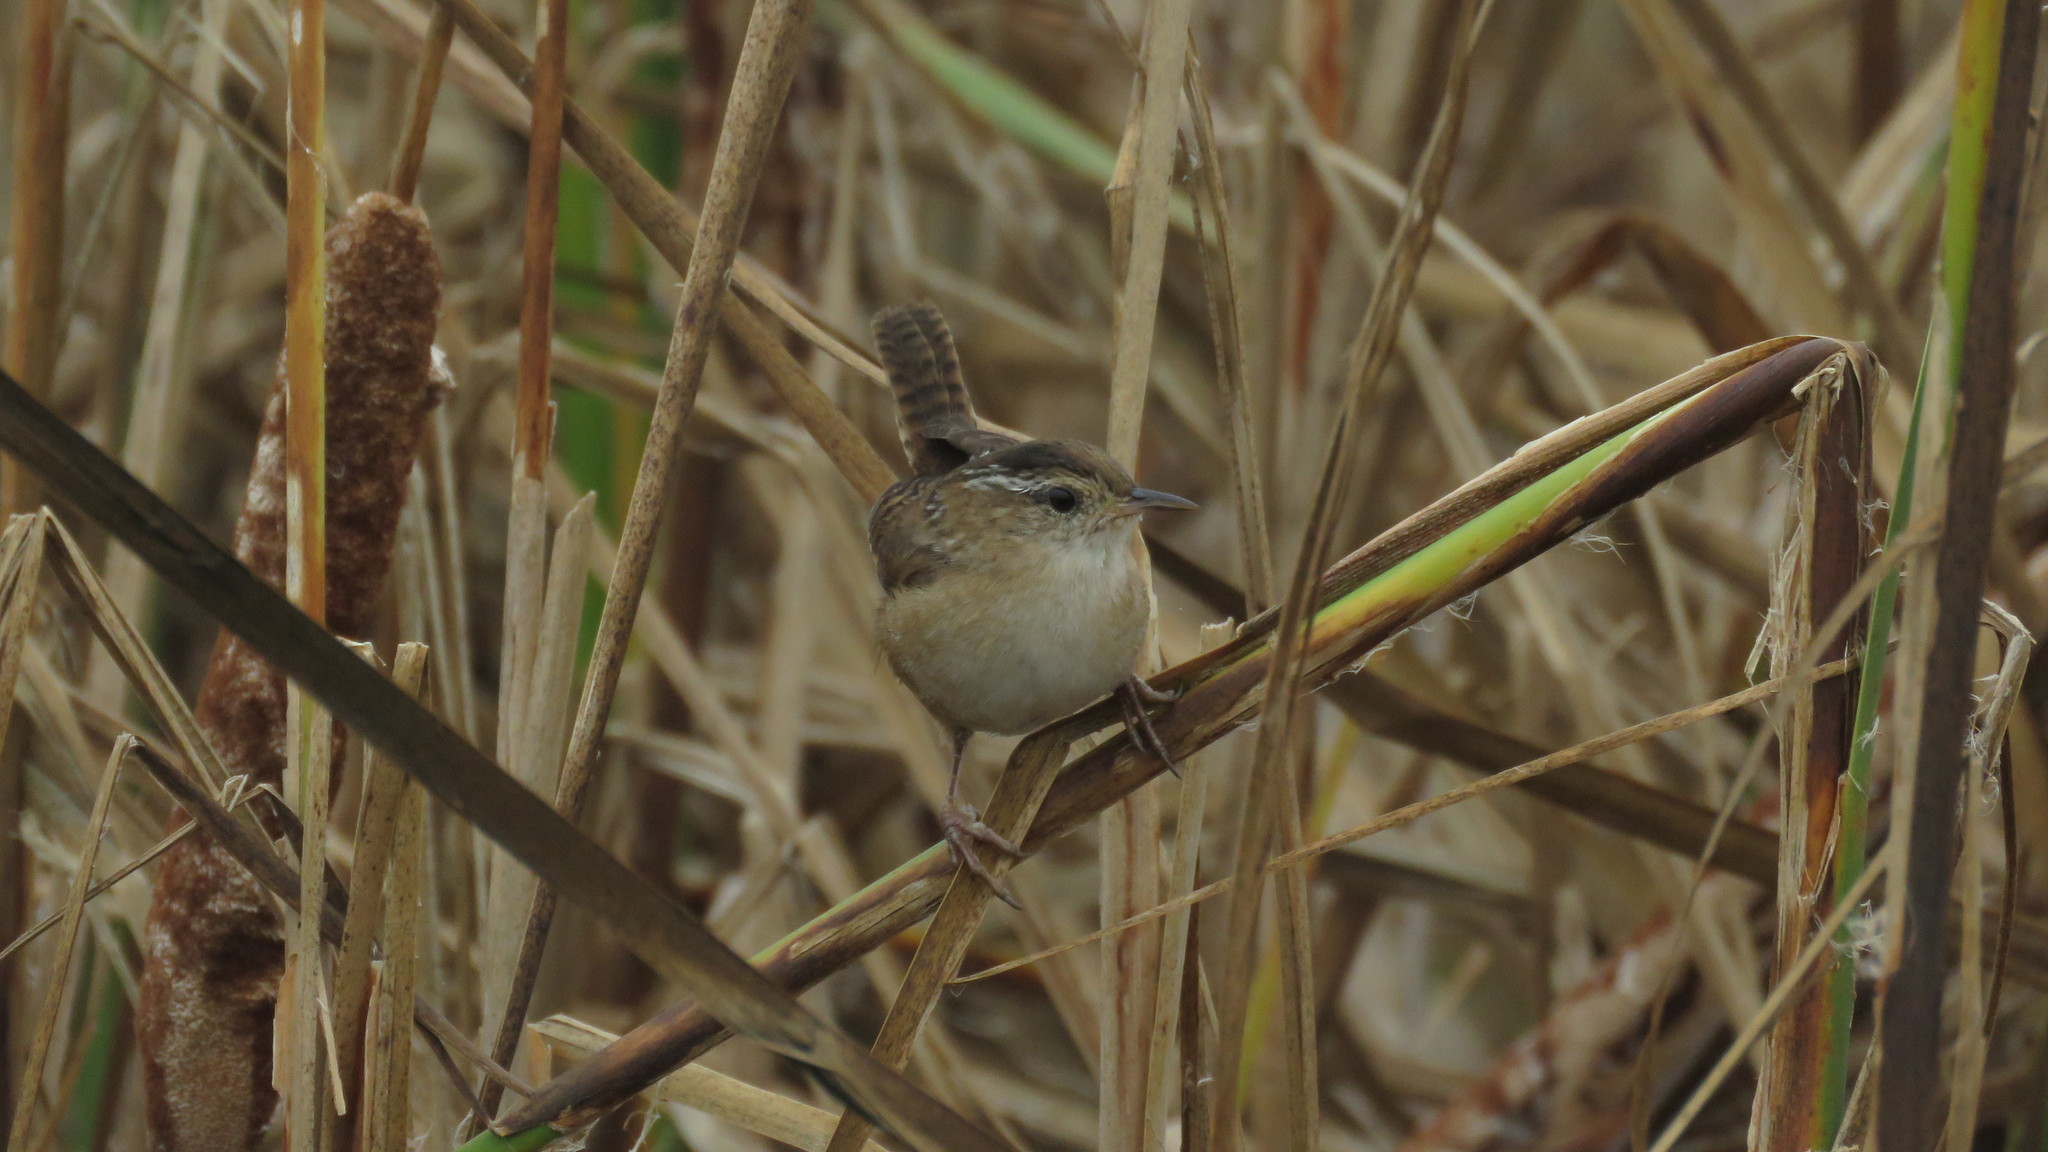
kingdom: Animalia
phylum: Chordata
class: Aves
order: Passeriformes
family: Troglodytidae
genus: Cistothorus
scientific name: Cistothorus palustris
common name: Marsh wren
